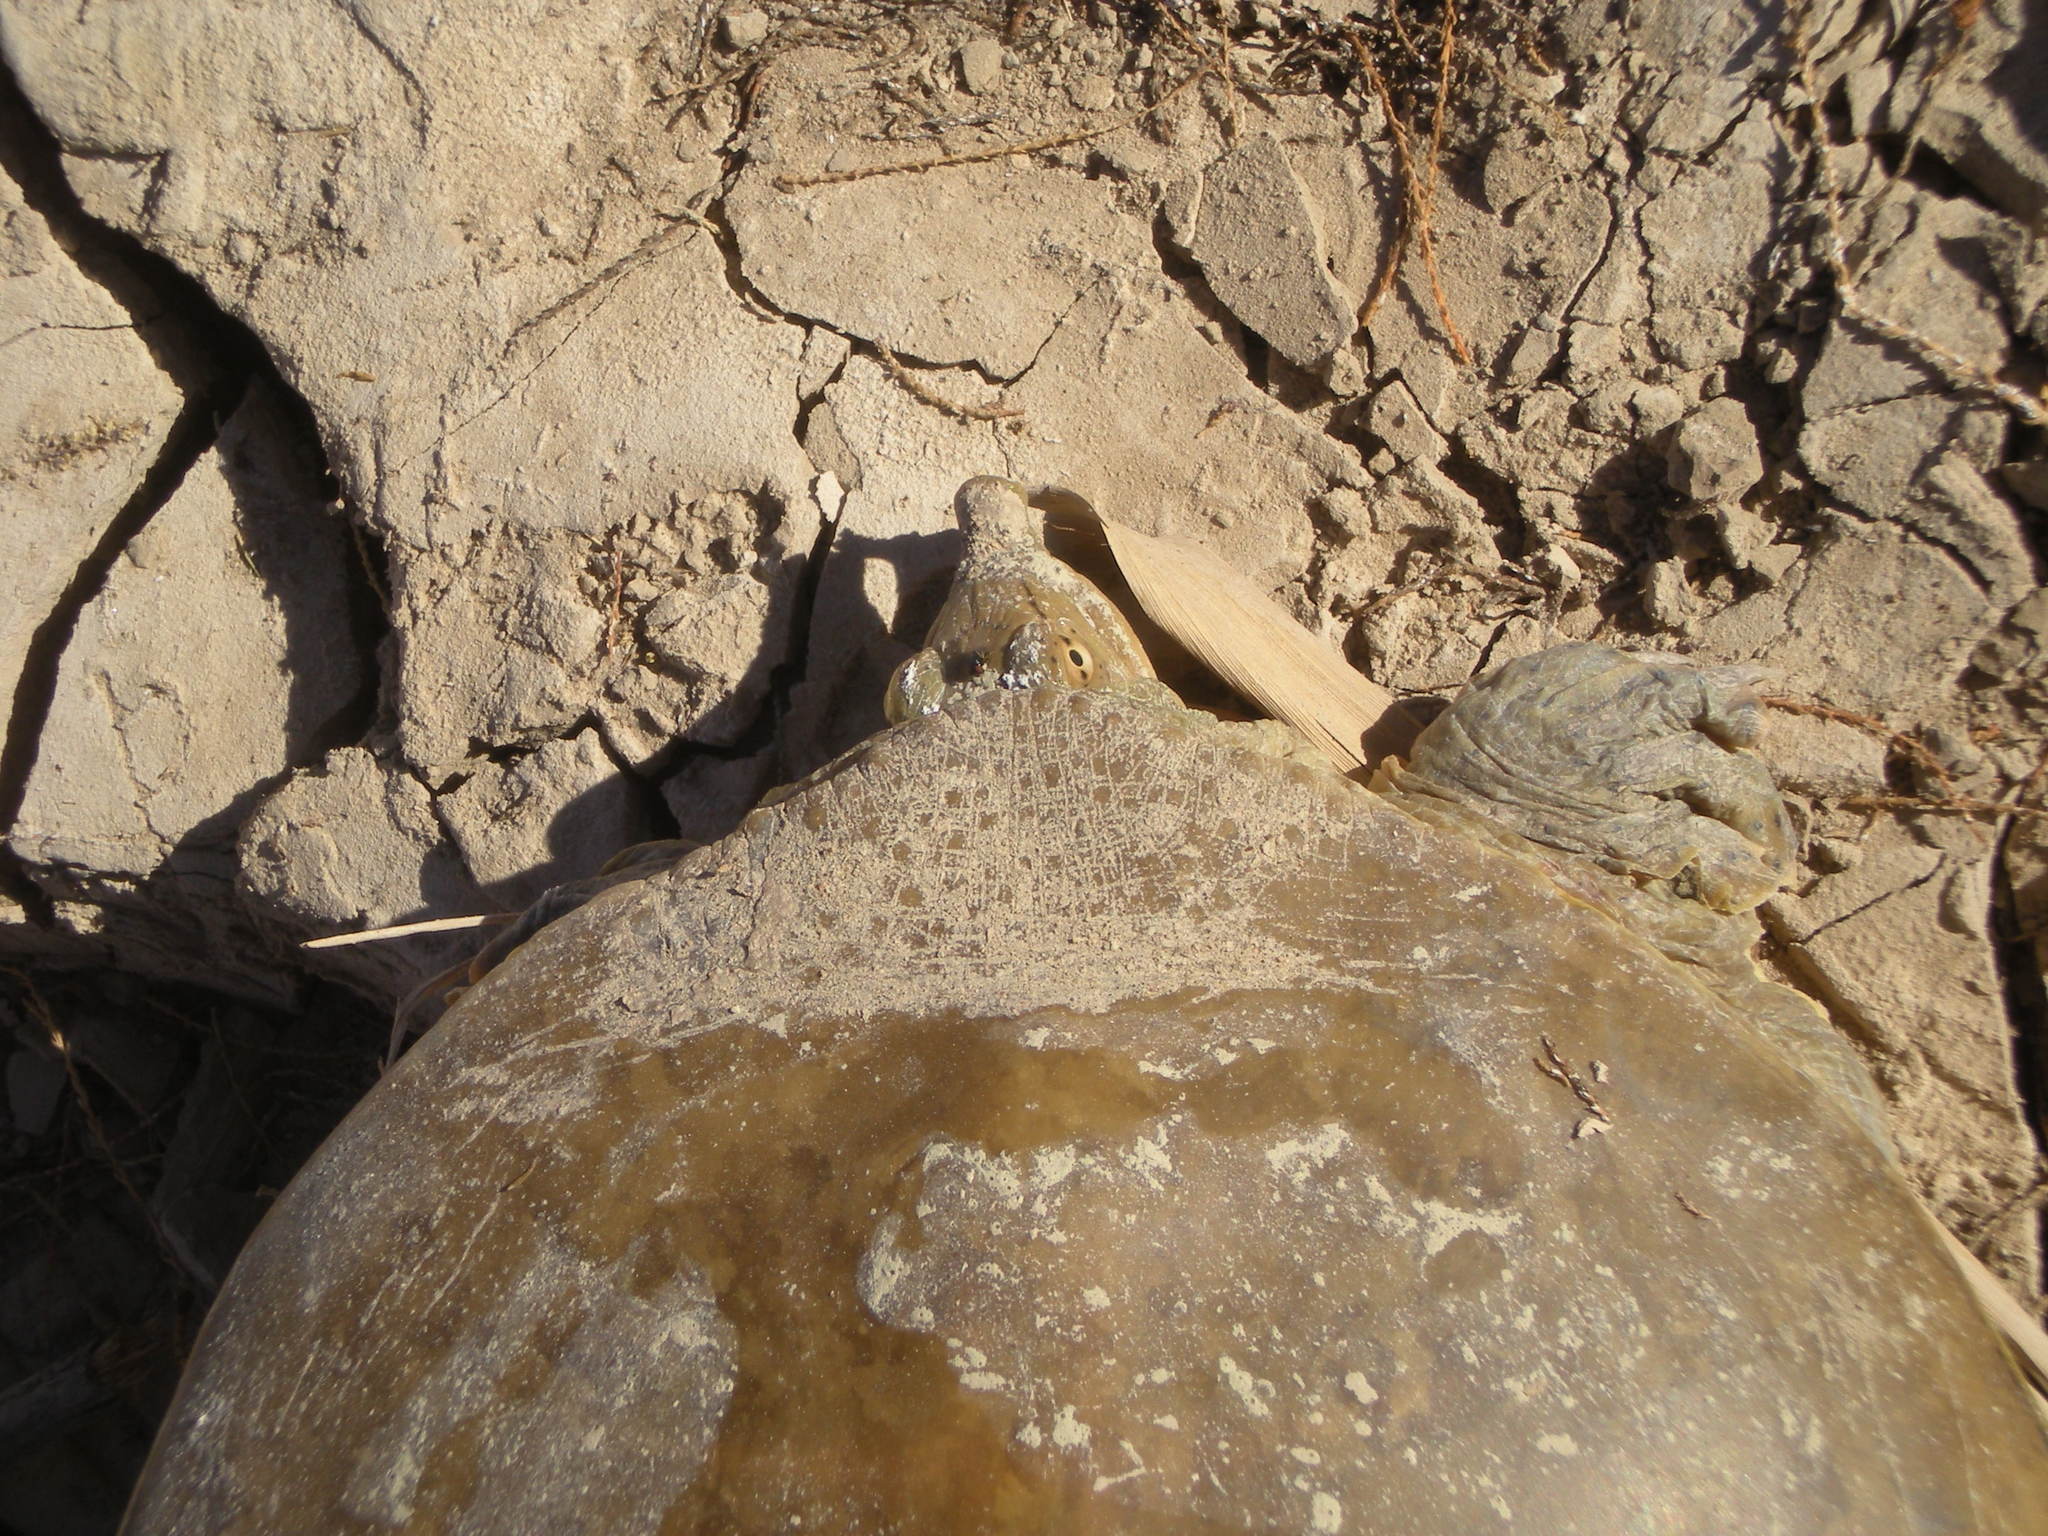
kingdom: Animalia
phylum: Chordata
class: Testudines
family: Trionychidae
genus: Apalone
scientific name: Apalone spinifera
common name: Spiny softshell turtle
